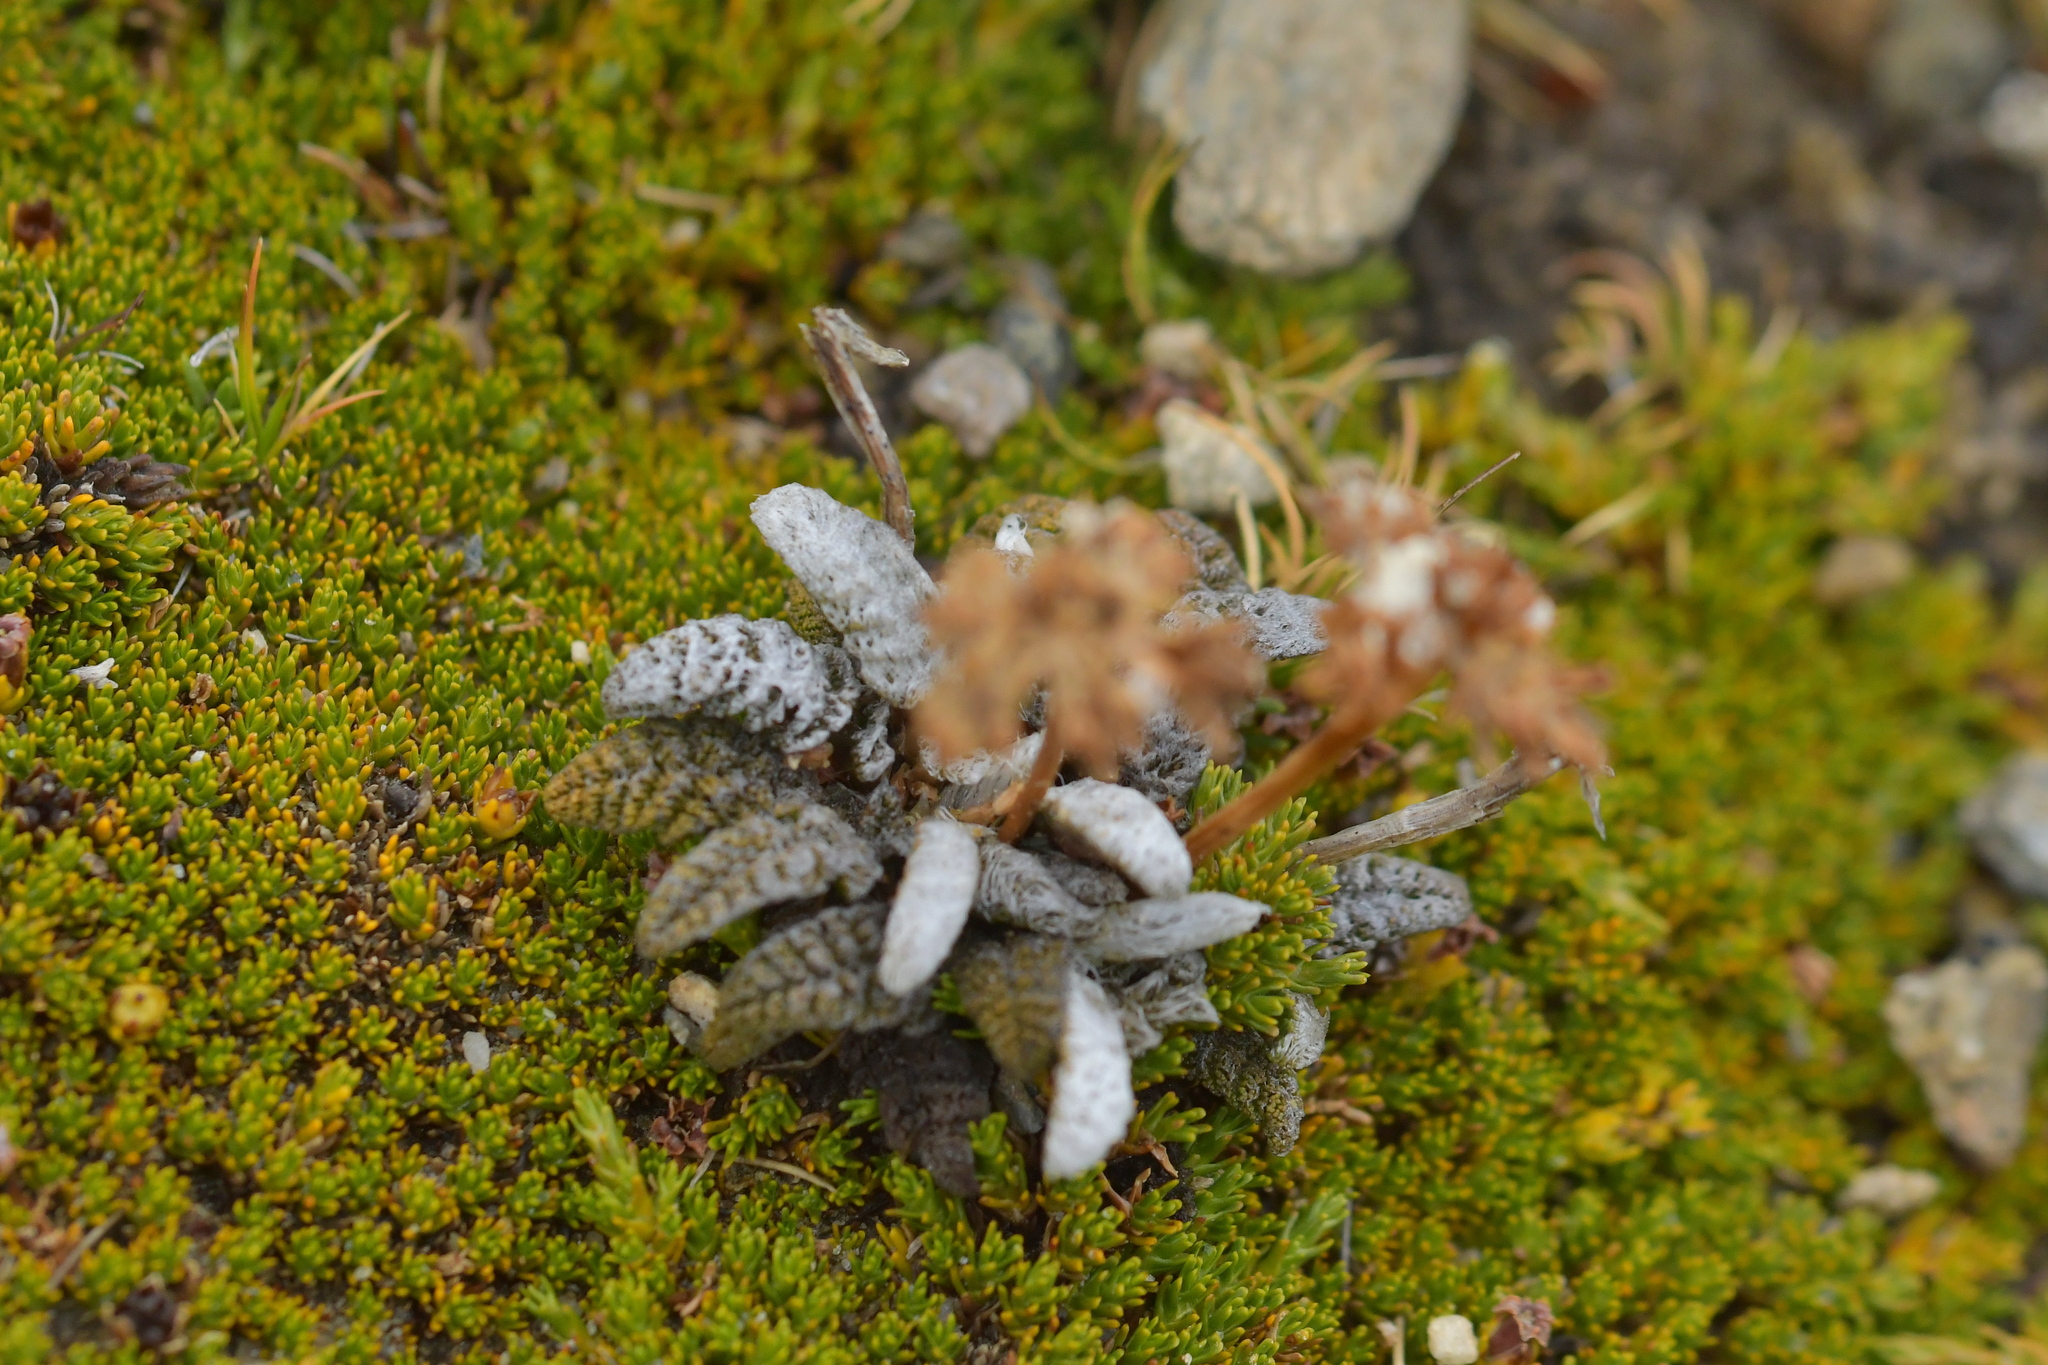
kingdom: Plantae
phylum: Tracheophyta
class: Magnoliopsida
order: Apiales
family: Apiaceae
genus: Anisotome
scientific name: Anisotome lanuginosa
